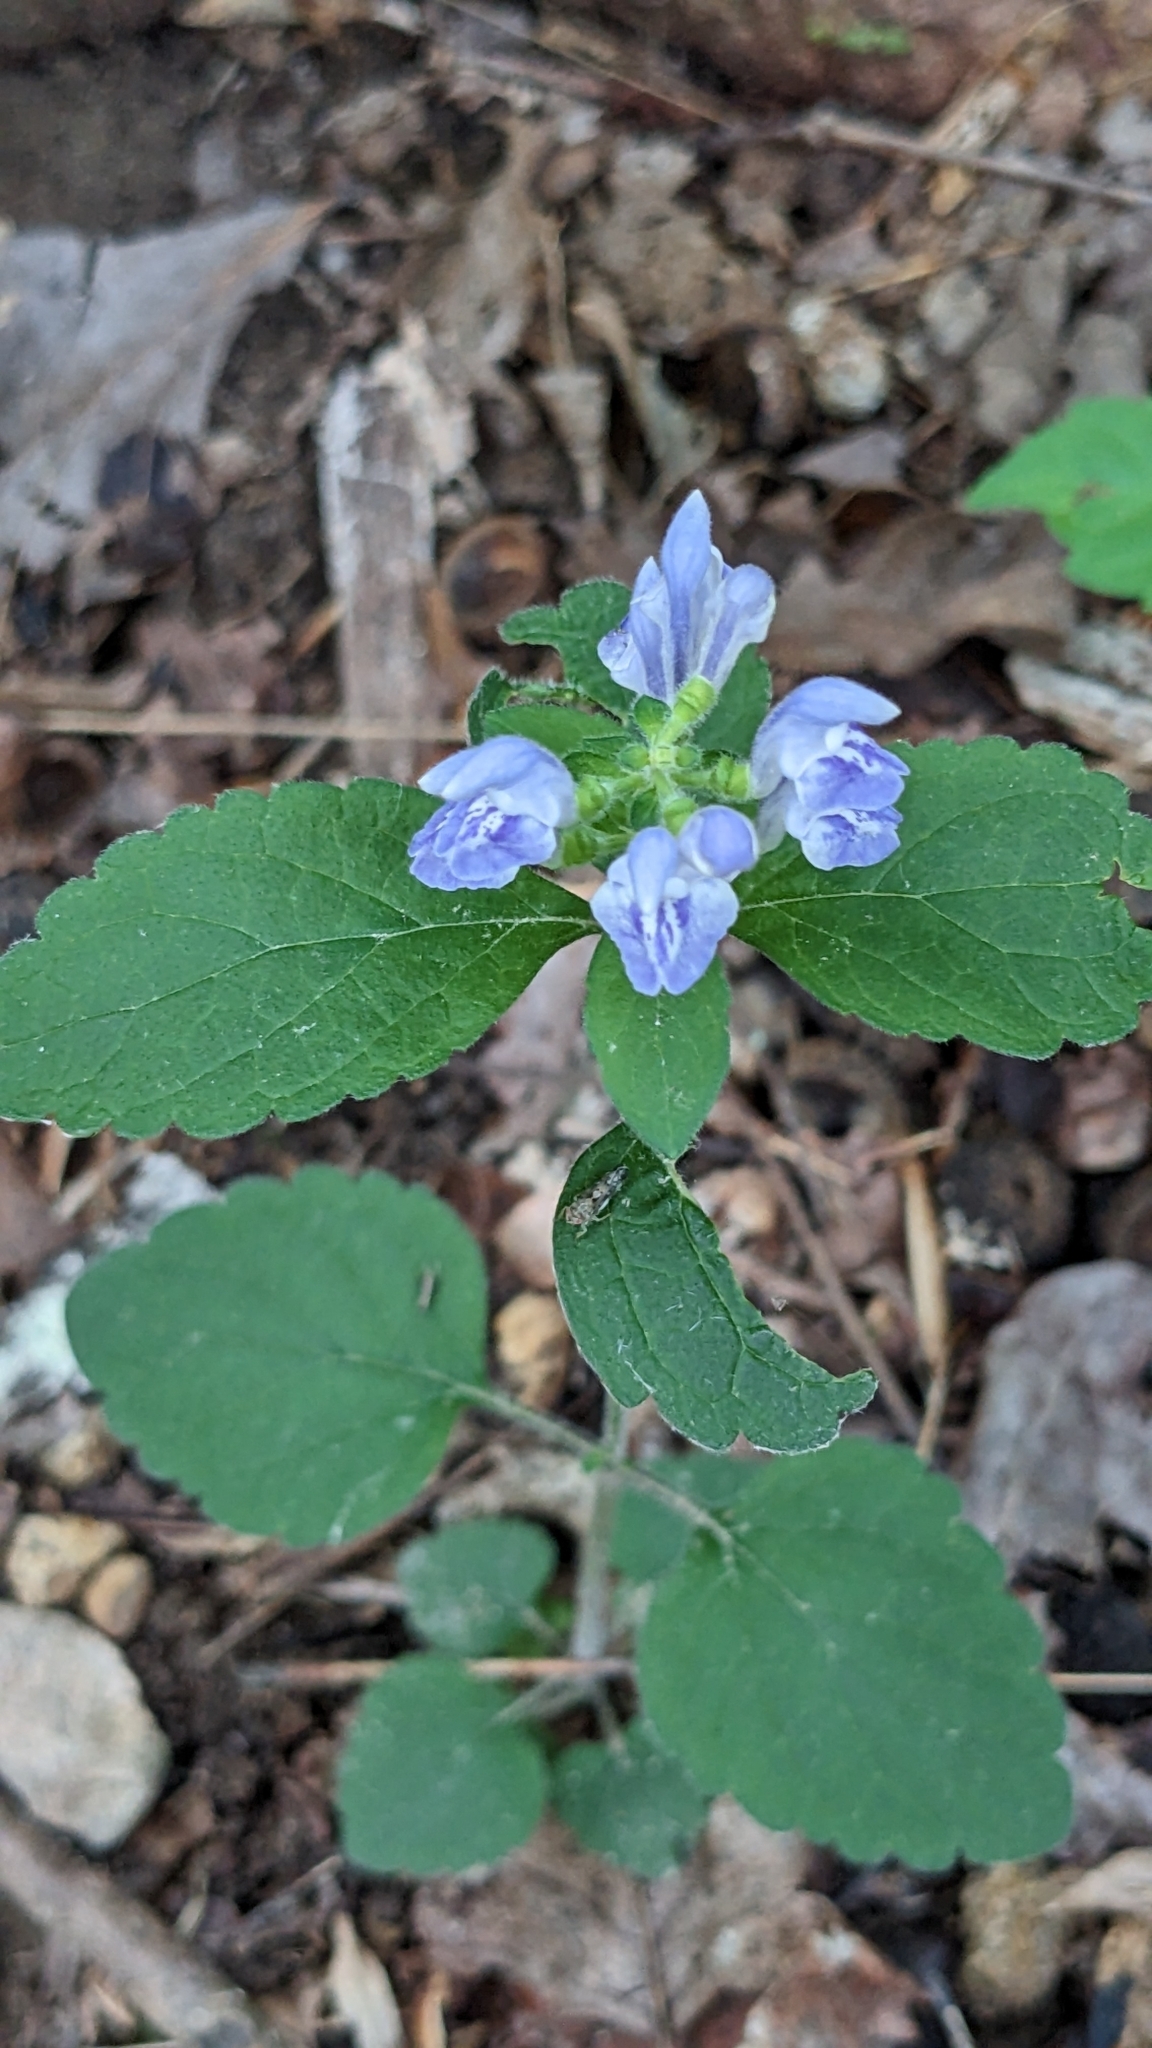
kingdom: Plantae
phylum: Tracheophyta
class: Magnoliopsida
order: Lamiales
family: Lamiaceae
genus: Scutellaria
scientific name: Scutellaria elliptica
